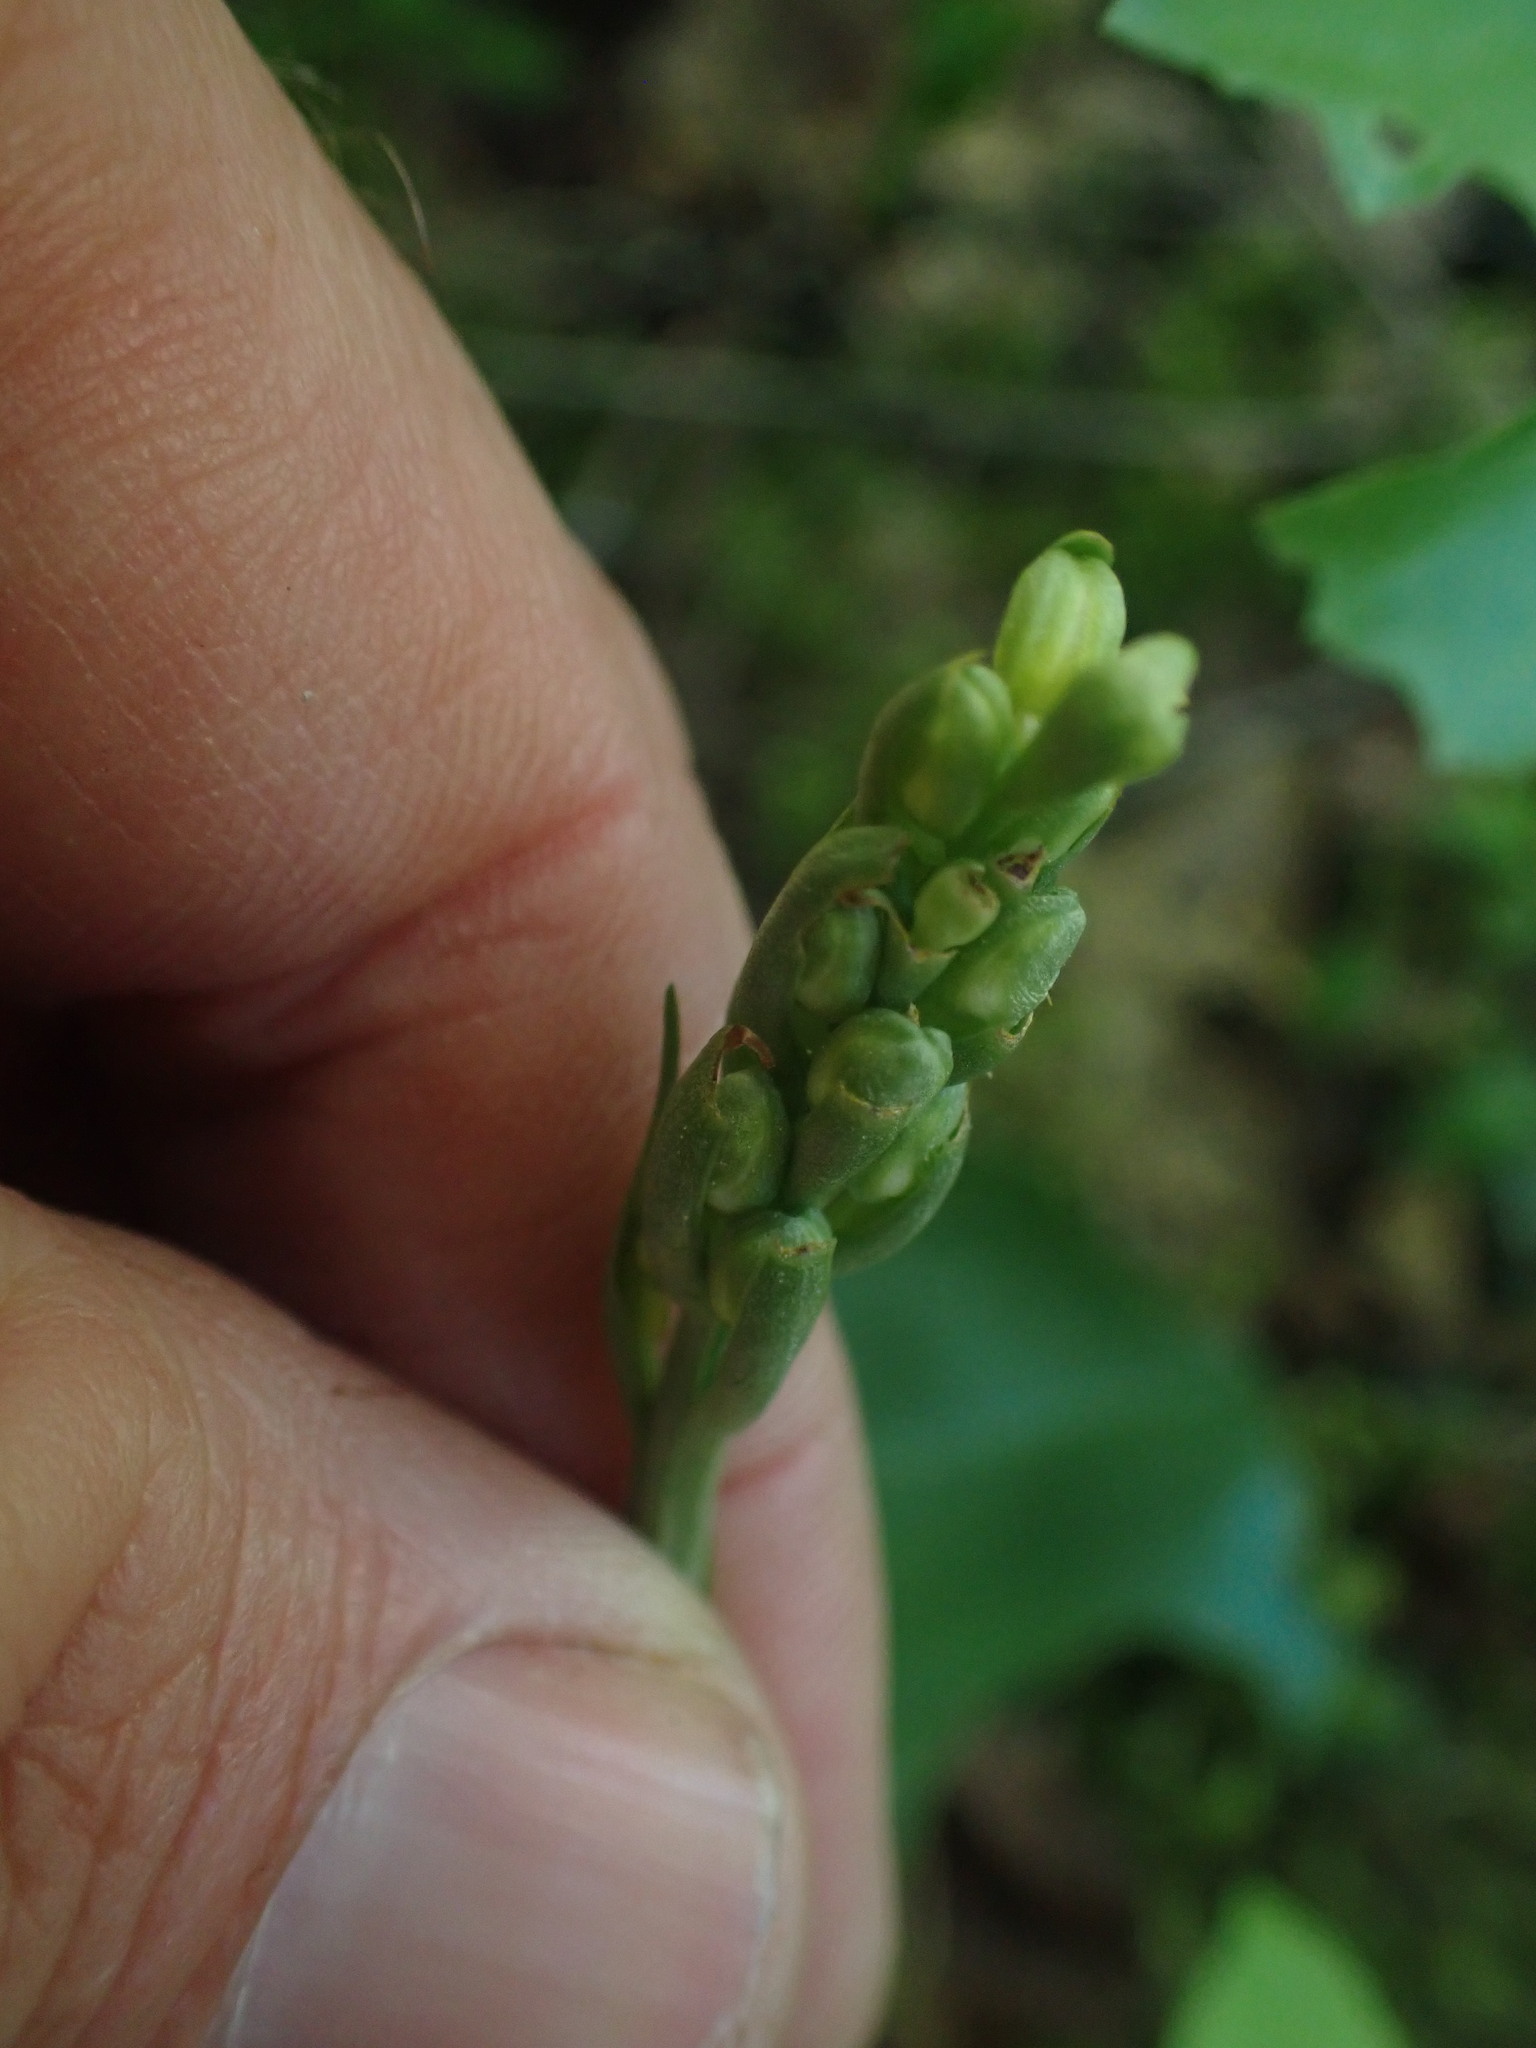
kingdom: Plantae
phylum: Tracheophyta
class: Liliopsida
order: Asparagales
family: Orchidaceae
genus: Platanthera
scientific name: Platanthera orbiculata
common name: Large round-leaved orchid
